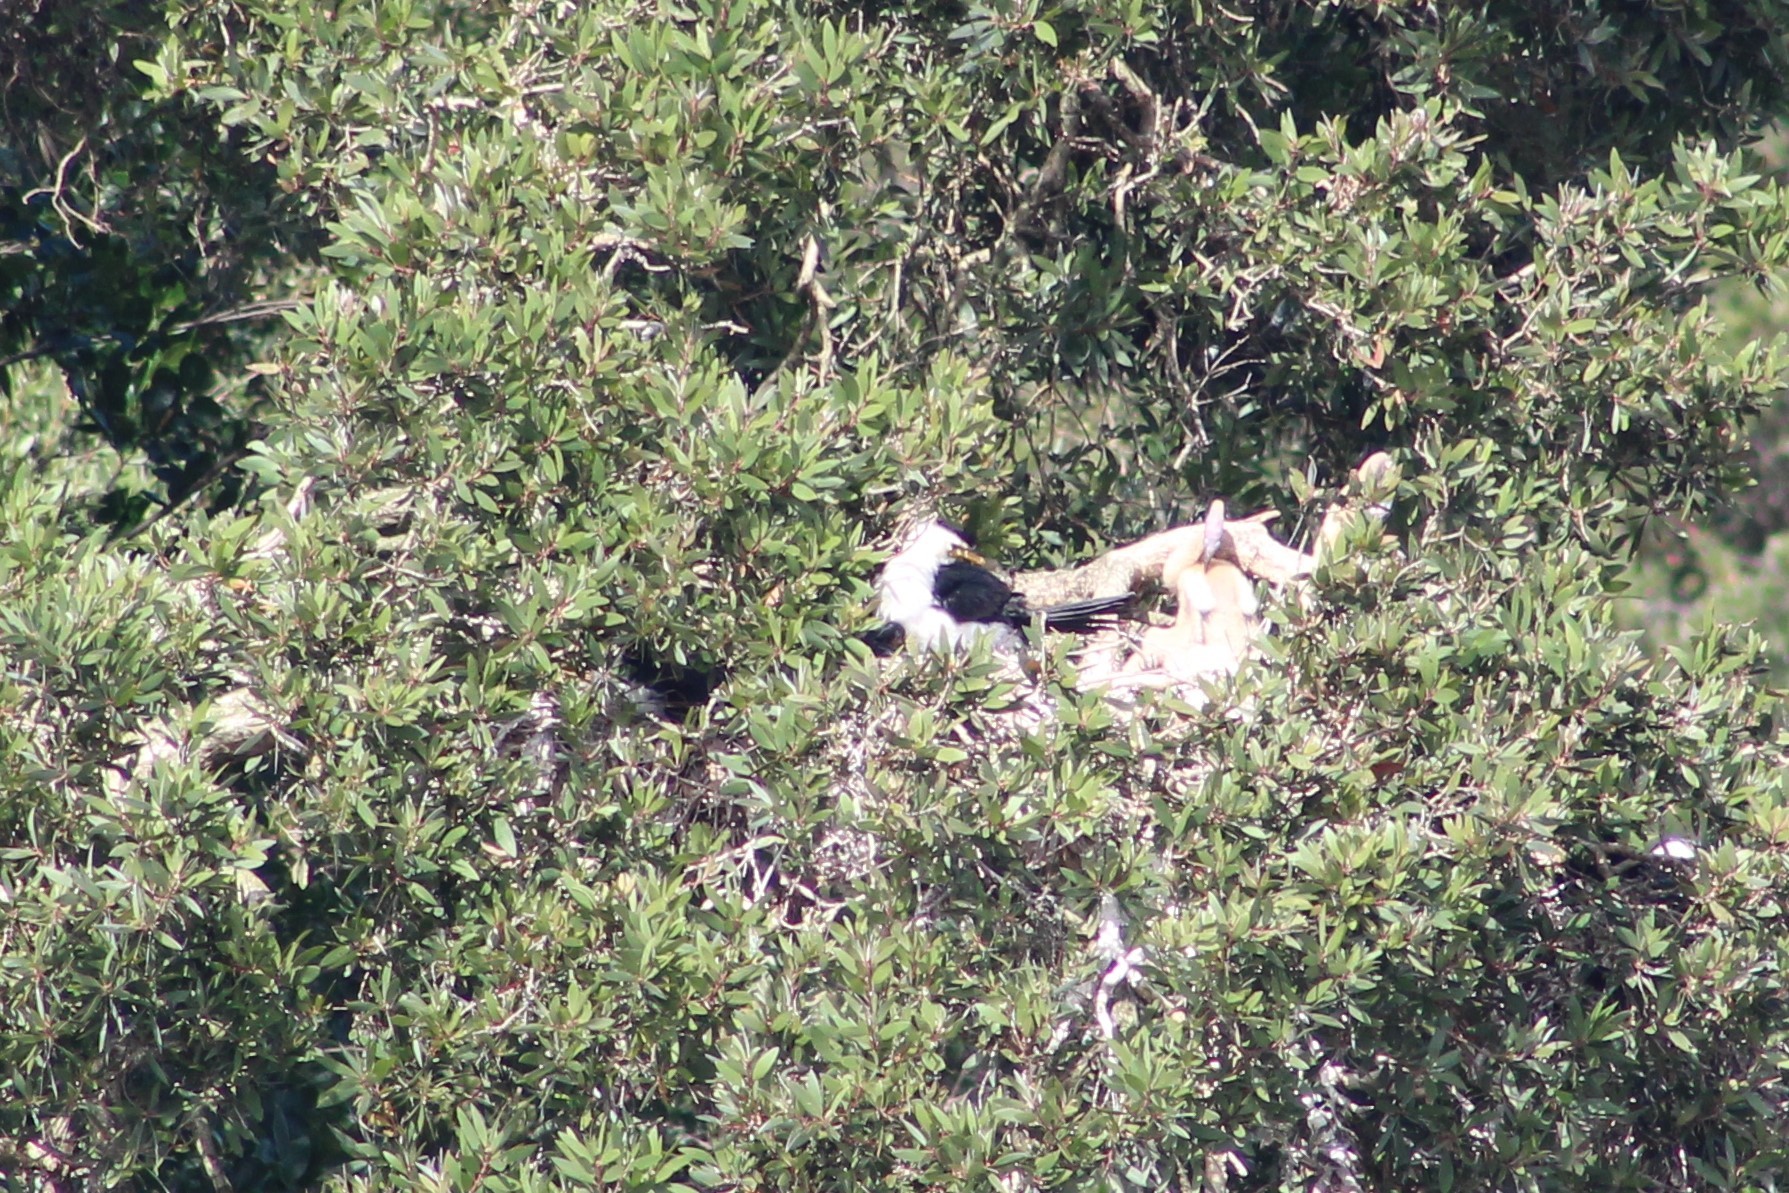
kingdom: Animalia
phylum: Chordata
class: Aves
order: Suliformes
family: Phalacrocoracidae
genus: Microcarbo
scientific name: Microcarbo melanoleucos
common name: Little pied cormorant
